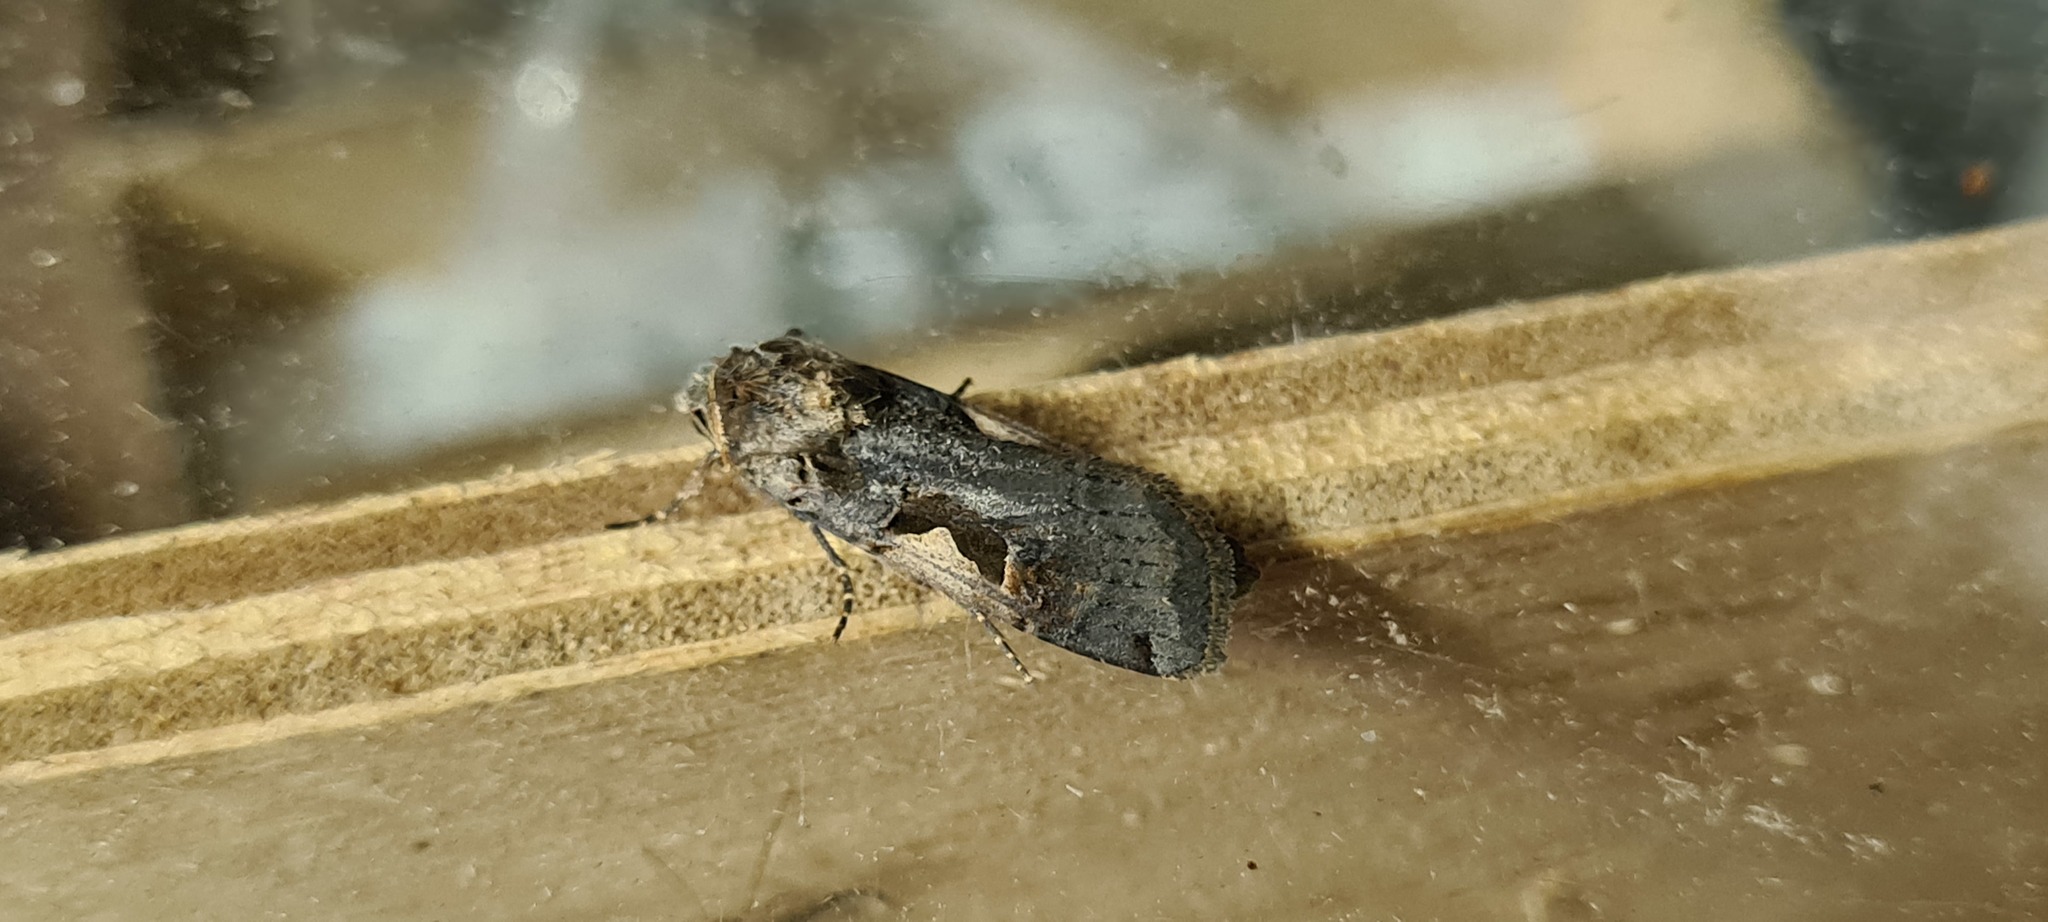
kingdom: Animalia
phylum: Arthropoda
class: Insecta
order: Lepidoptera
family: Noctuidae
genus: Xestia
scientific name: Xestia c-nigrum
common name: Setaceous hebrew character
